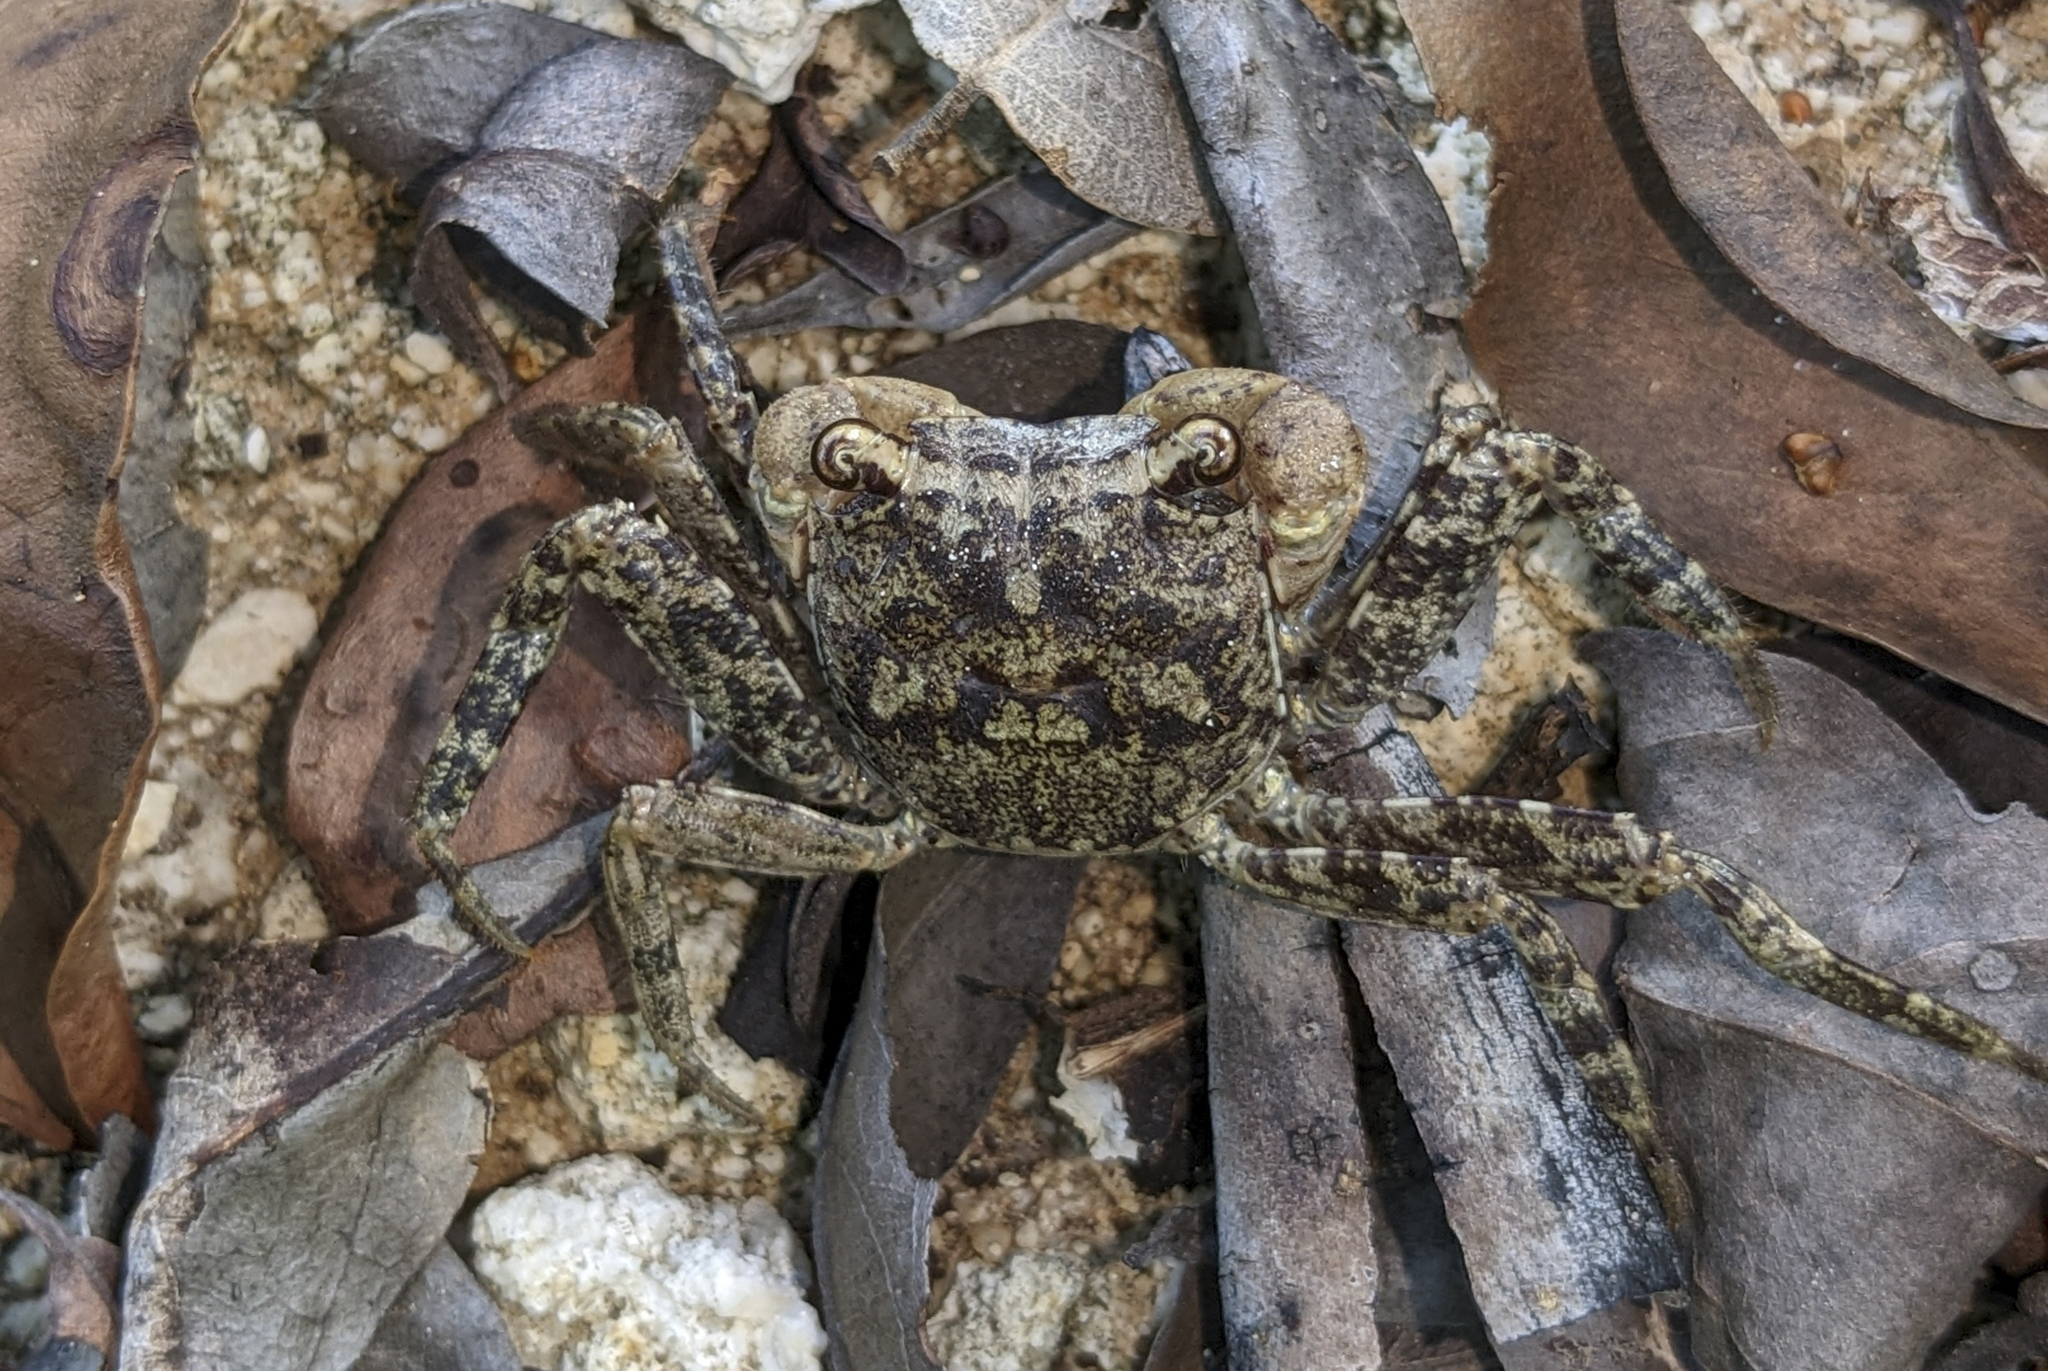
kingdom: Animalia
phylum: Arthropoda
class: Malacostraca
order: Decapoda
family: Sesarmidae
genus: Armases
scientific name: Armases ricordi
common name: Humic marsh crab
